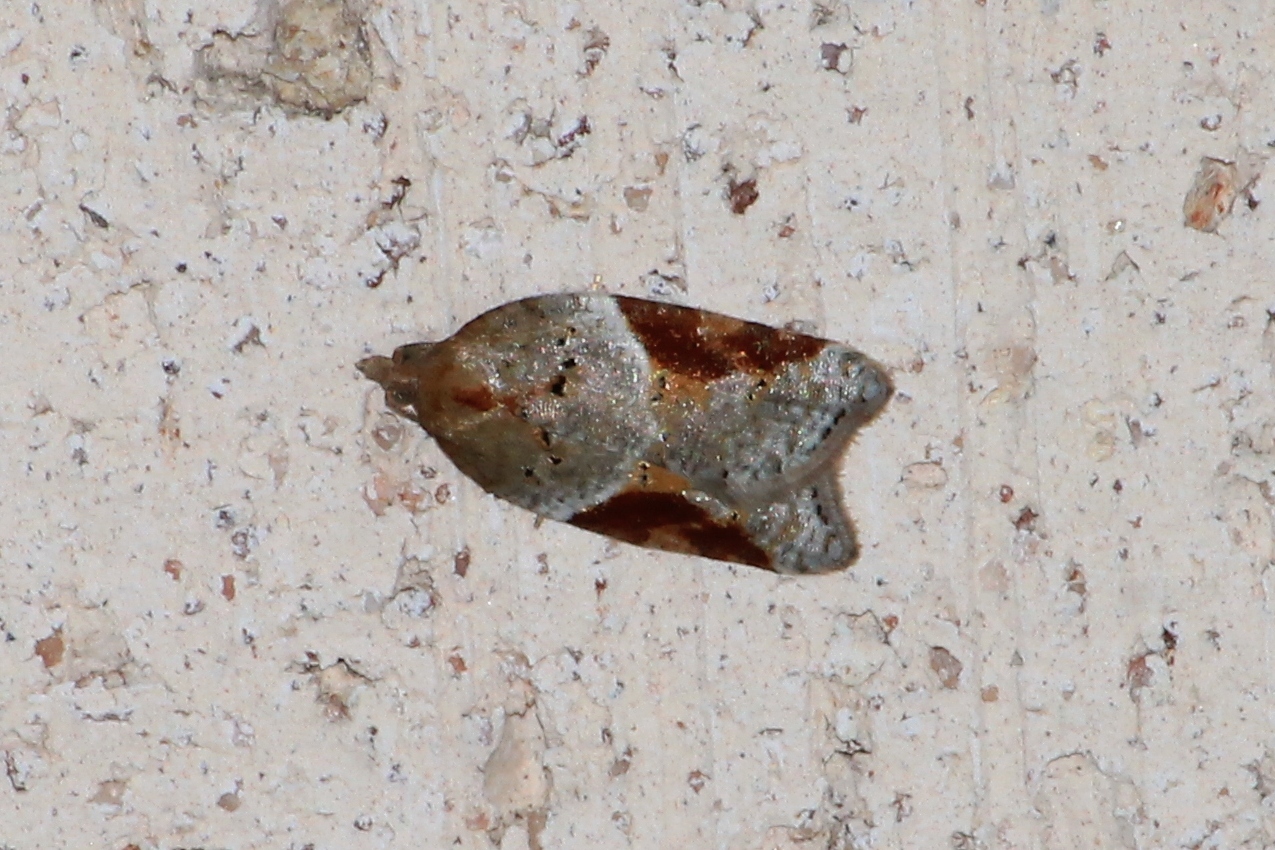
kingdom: Animalia
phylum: Arthropoda
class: Insecta
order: Lepidoptera
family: Tortricidae
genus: Acleris
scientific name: Acleris laterana
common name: Dark-triangle button
